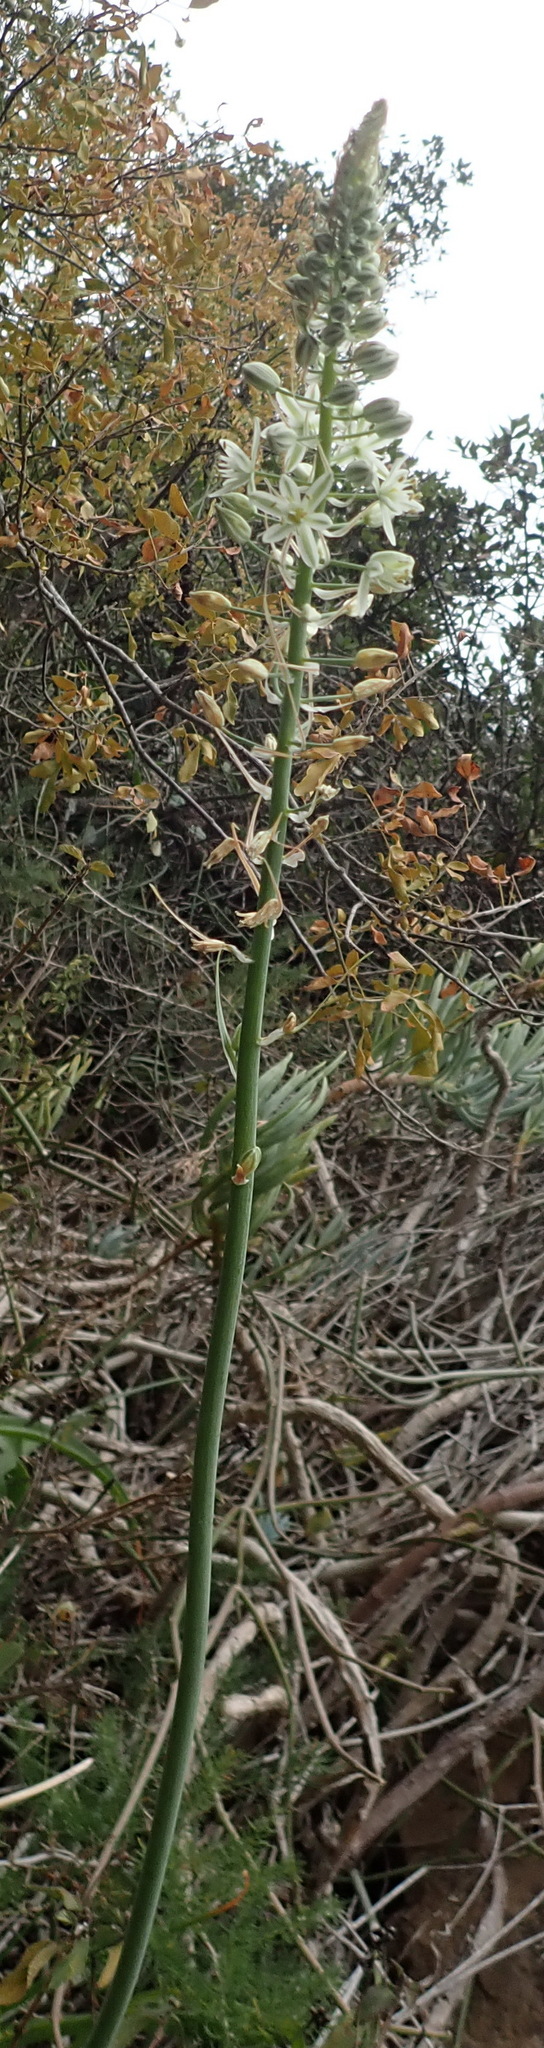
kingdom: Plantae
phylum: Tracheophyta
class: Liliopsida
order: Asparagales
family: Asparagaceae
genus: Albuca
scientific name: Albuca bracteata
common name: Sea-onion
